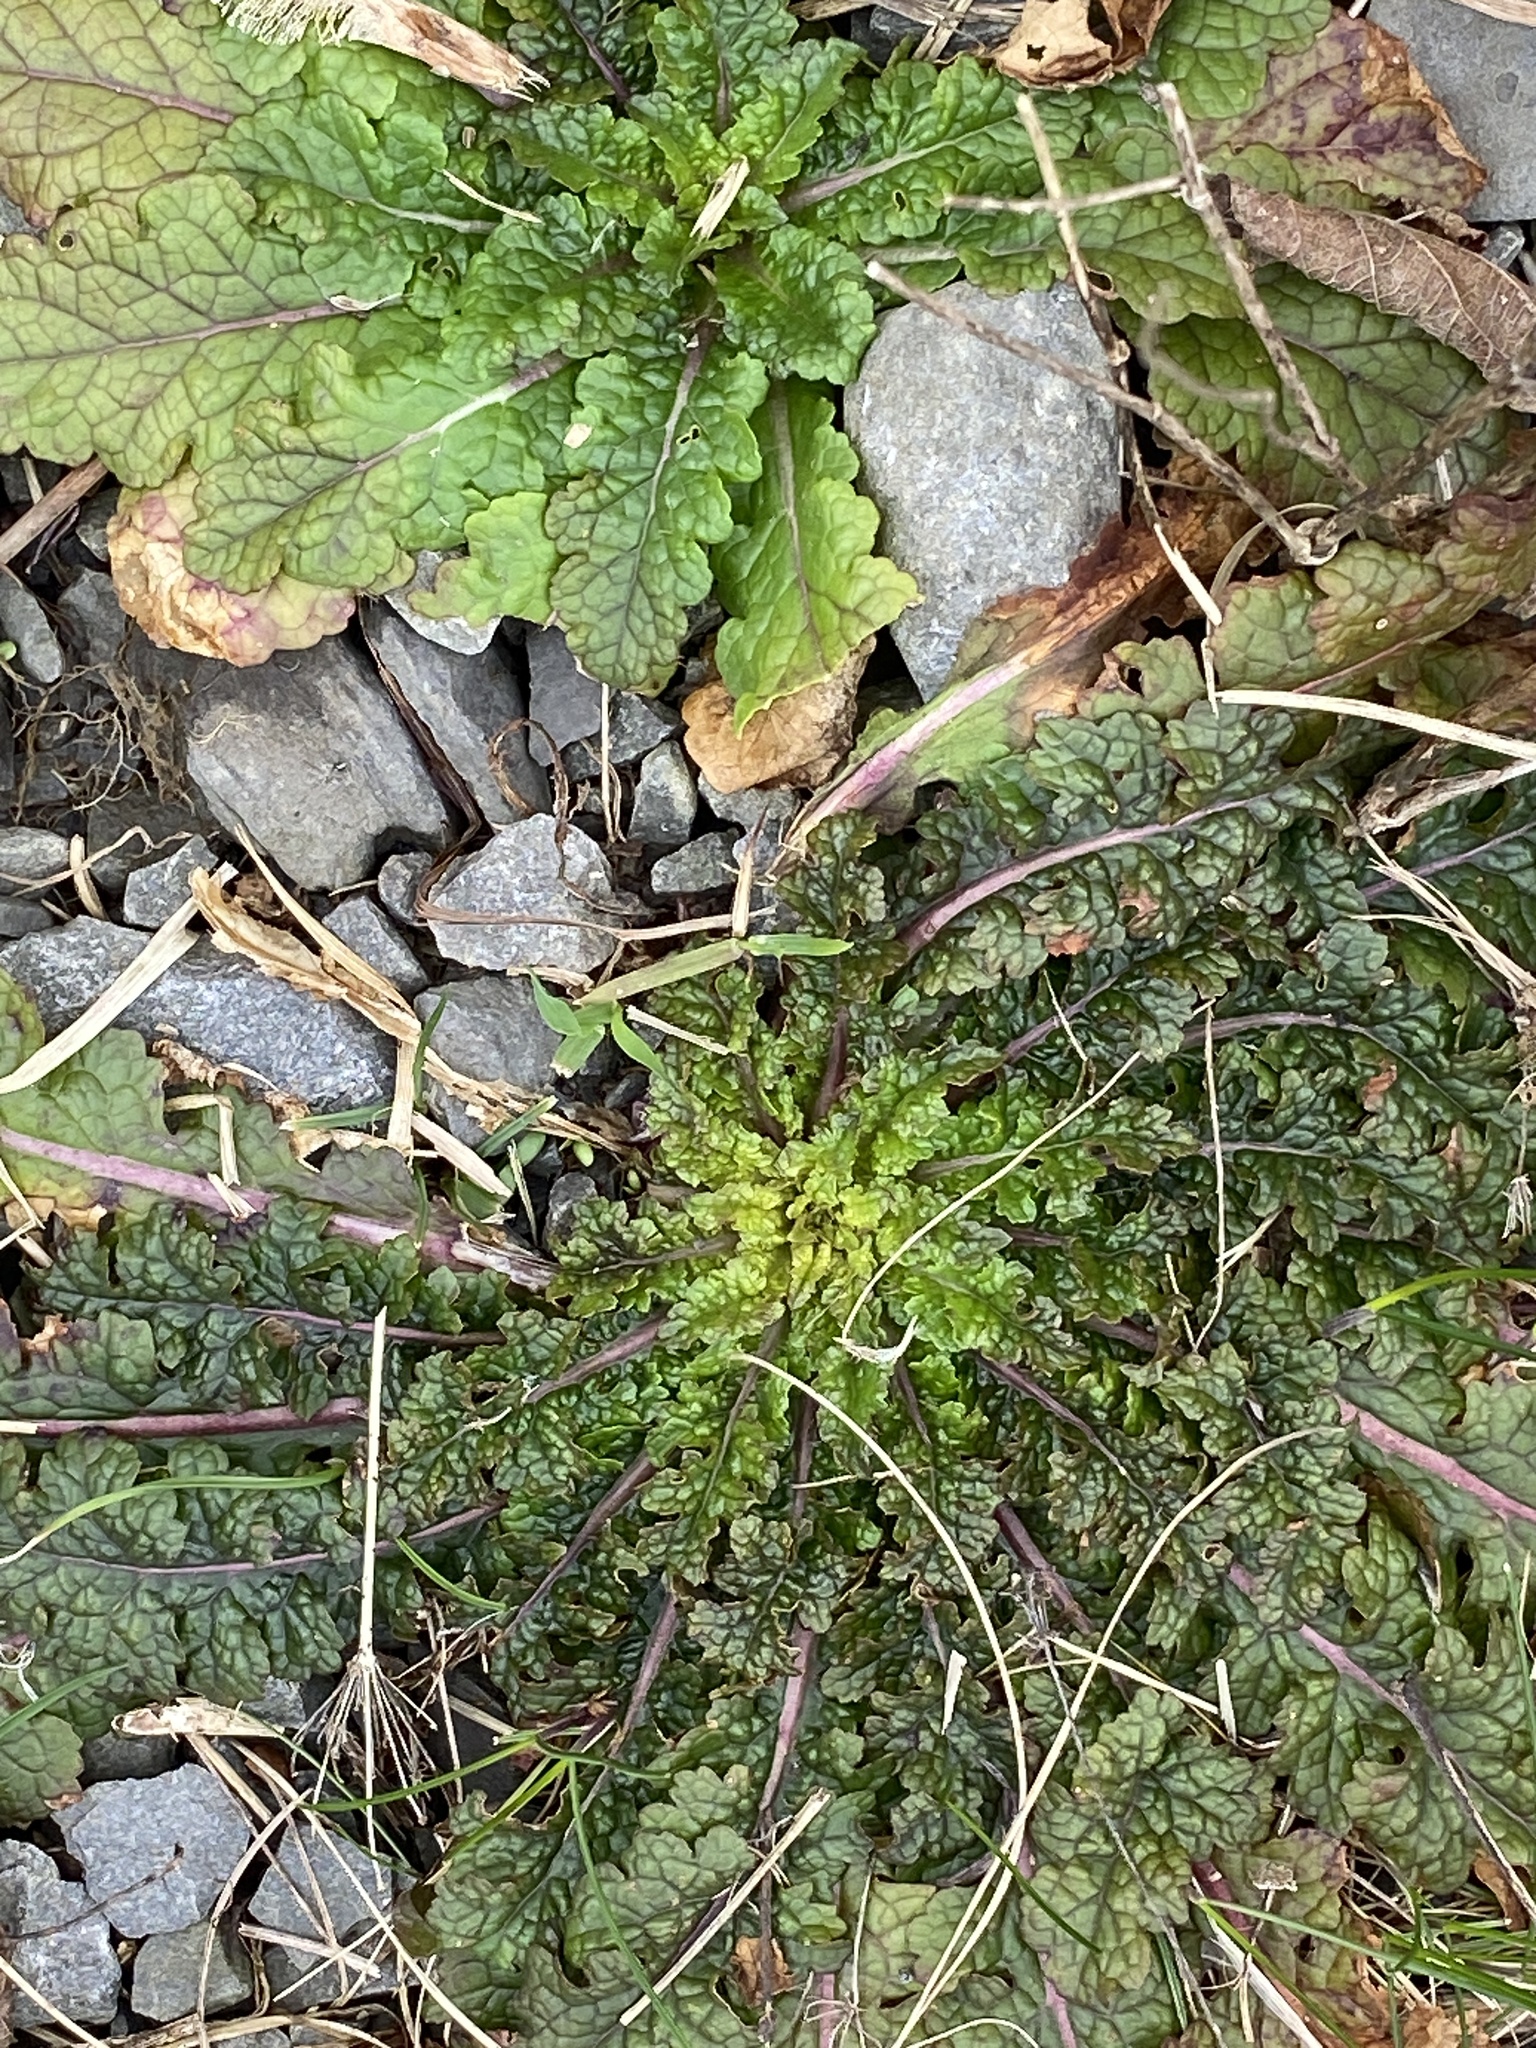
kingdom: Plantae
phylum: Tracheophyta
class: Magnoliopsida
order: Lamiales
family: Scrophulariaceae
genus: Verbascum
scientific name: Verbascum blattaria
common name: Moth mullein
